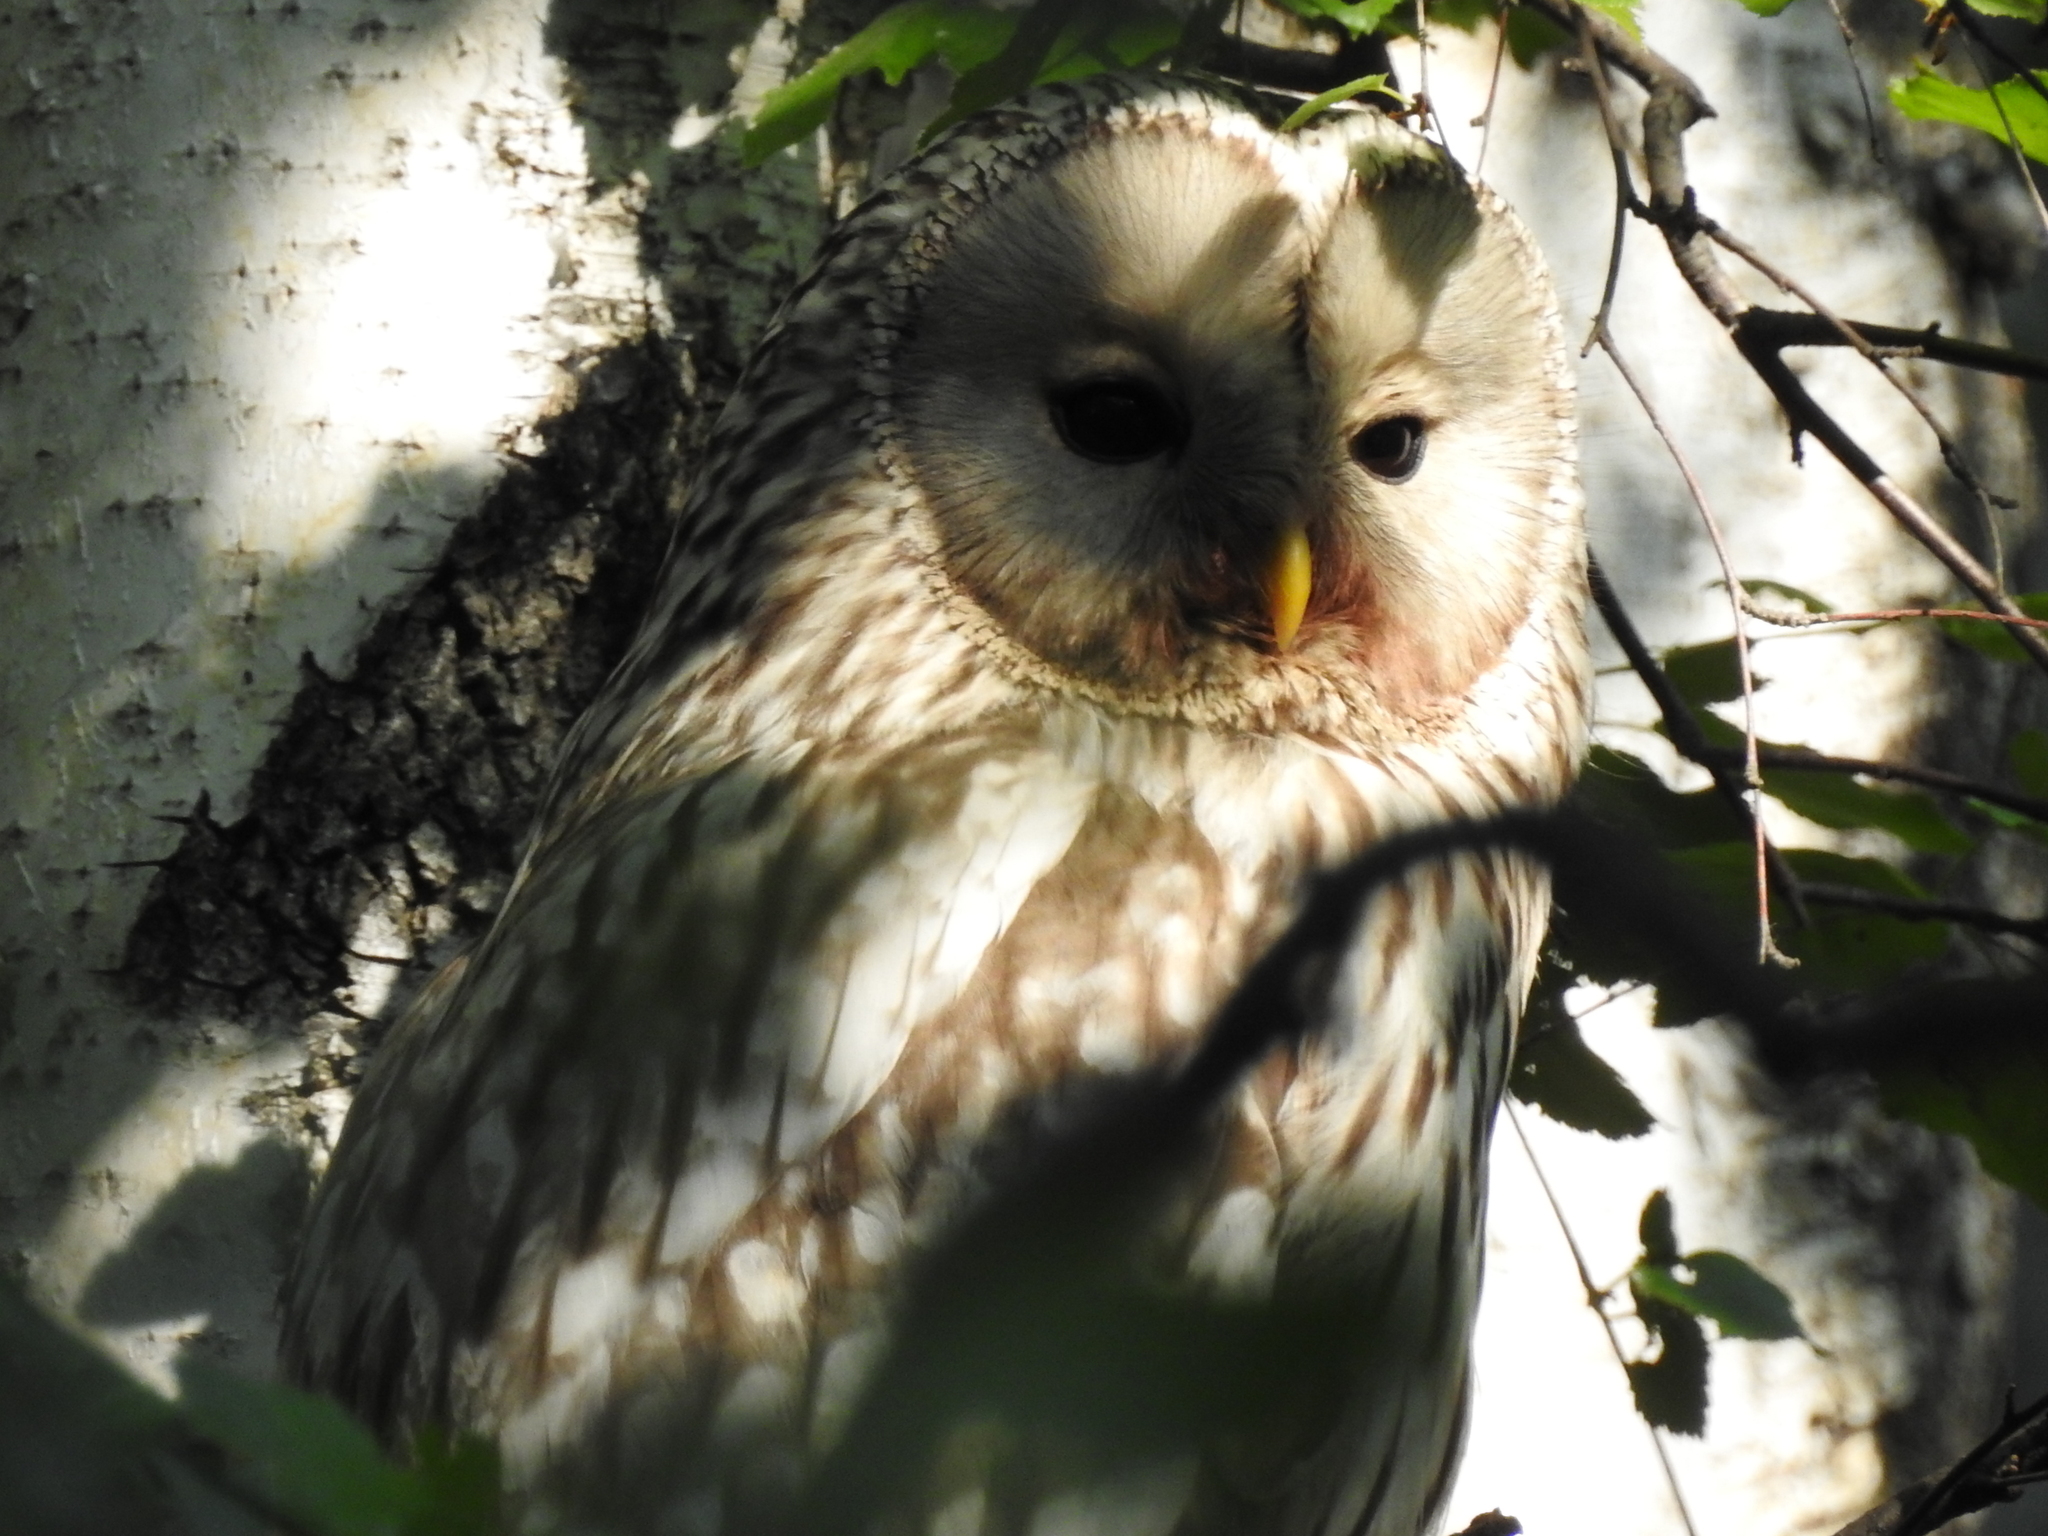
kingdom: Animalia
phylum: Chordata
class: Aves
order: Strigiformes
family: Strigidae
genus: Strix
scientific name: Strix uralensis
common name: Ural owl
